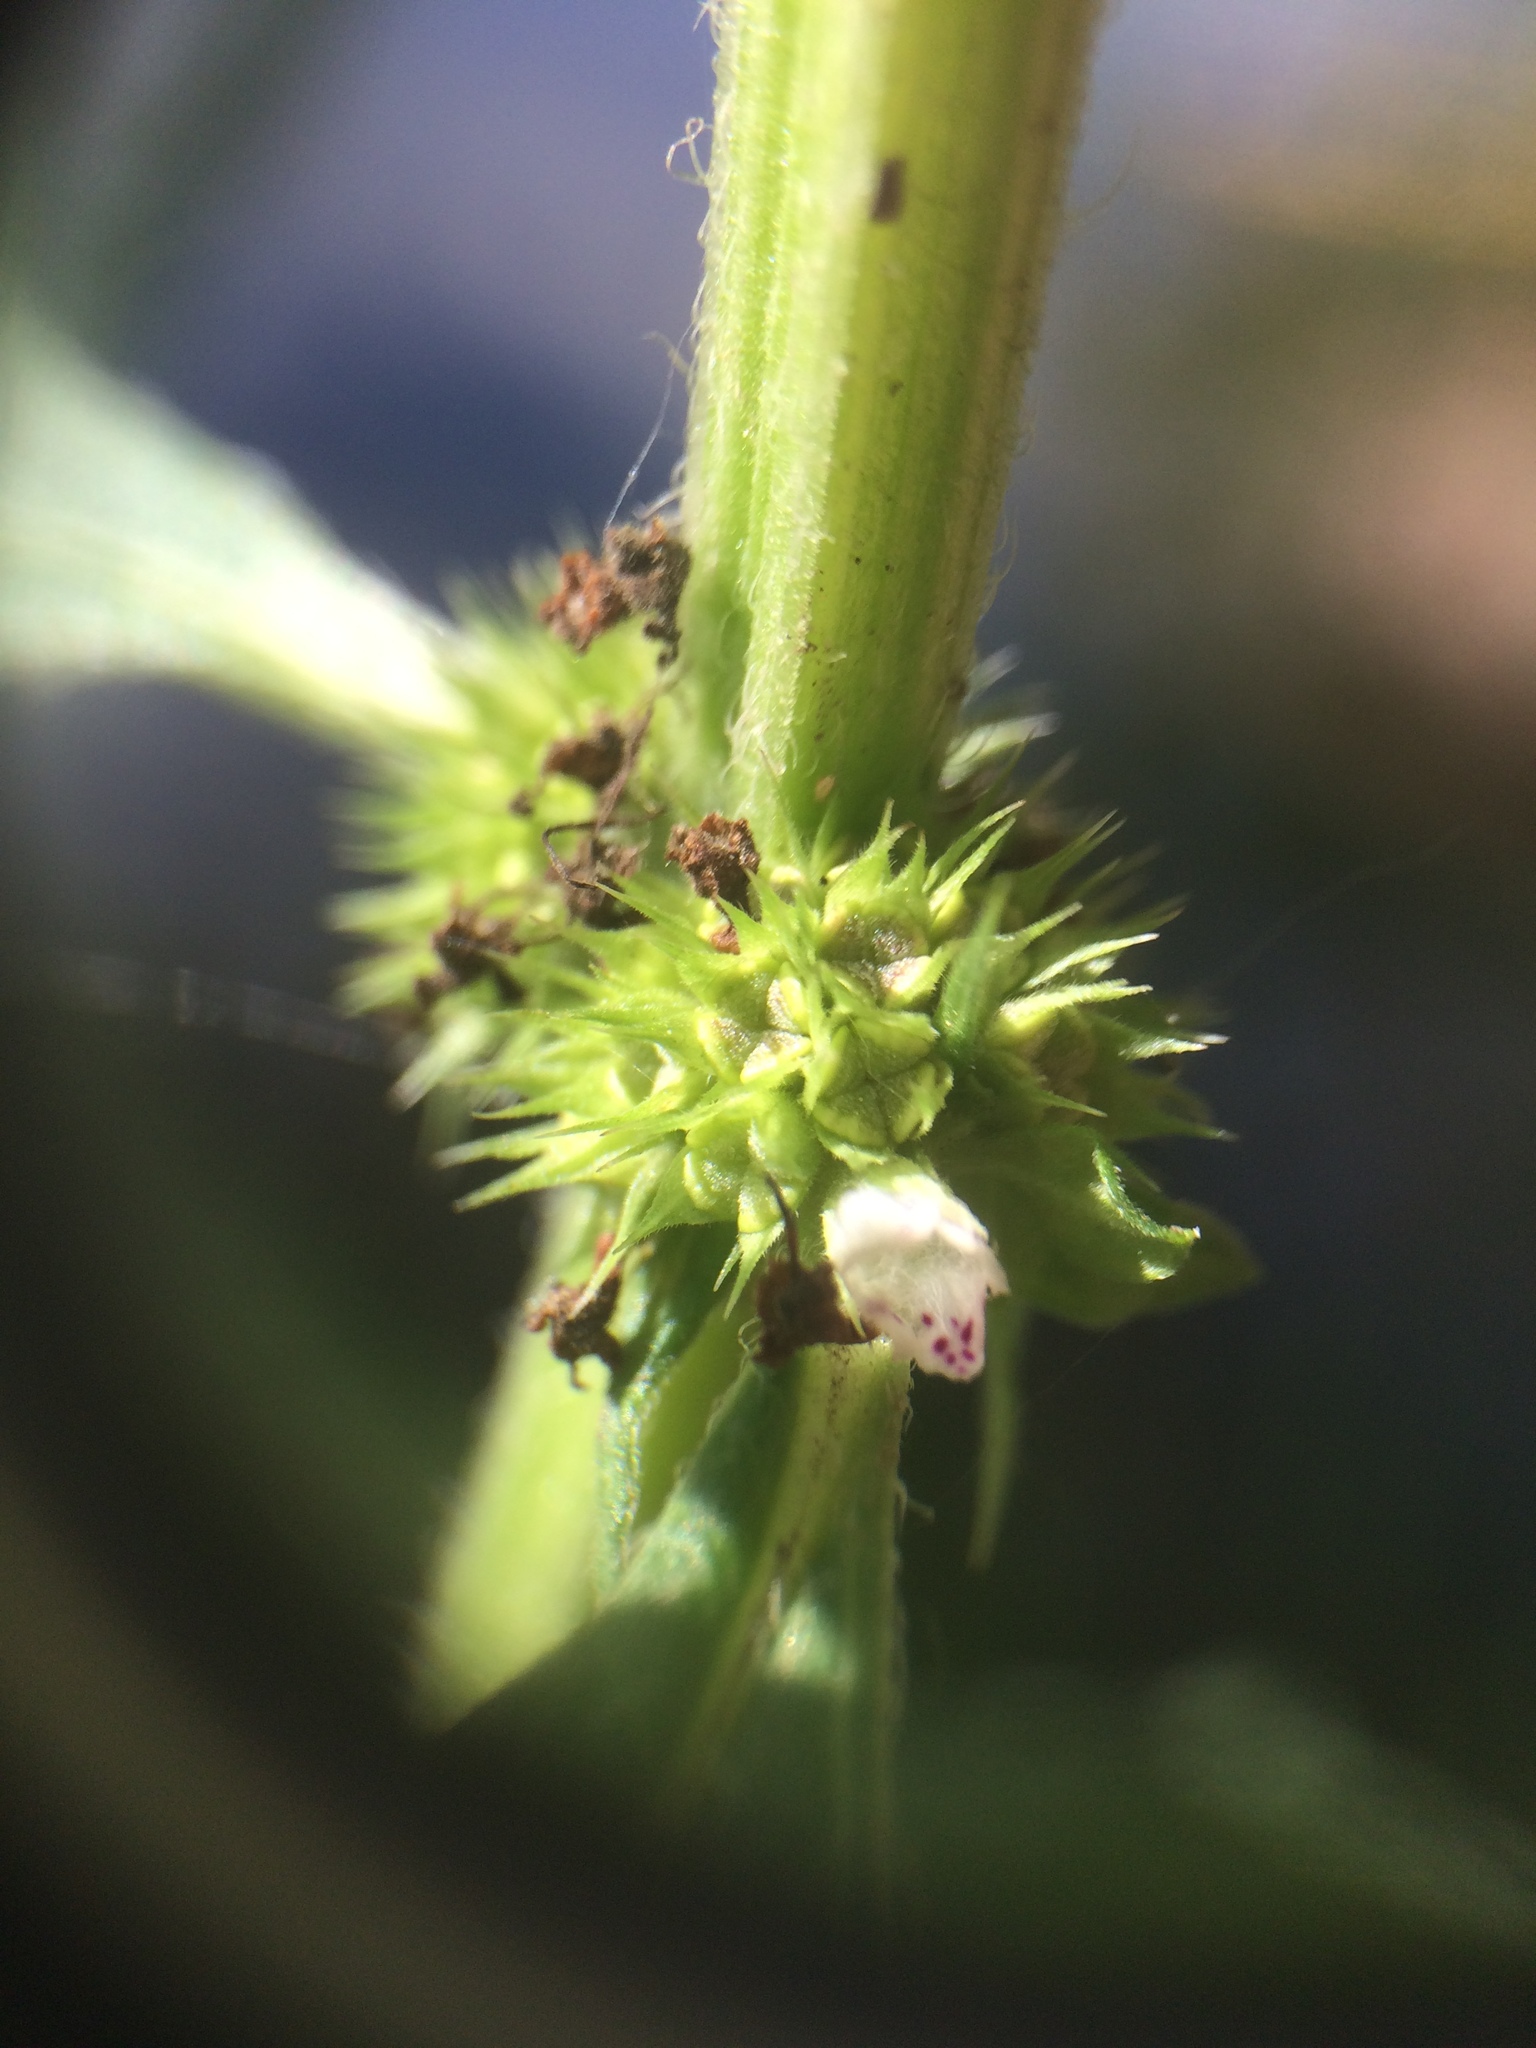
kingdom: Plantae
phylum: Tracheophyta
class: Magnoliopsida
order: Lamiales
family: Lamiaceae
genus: Lycopus
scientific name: Lycopus europaeus
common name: European bugleweed
